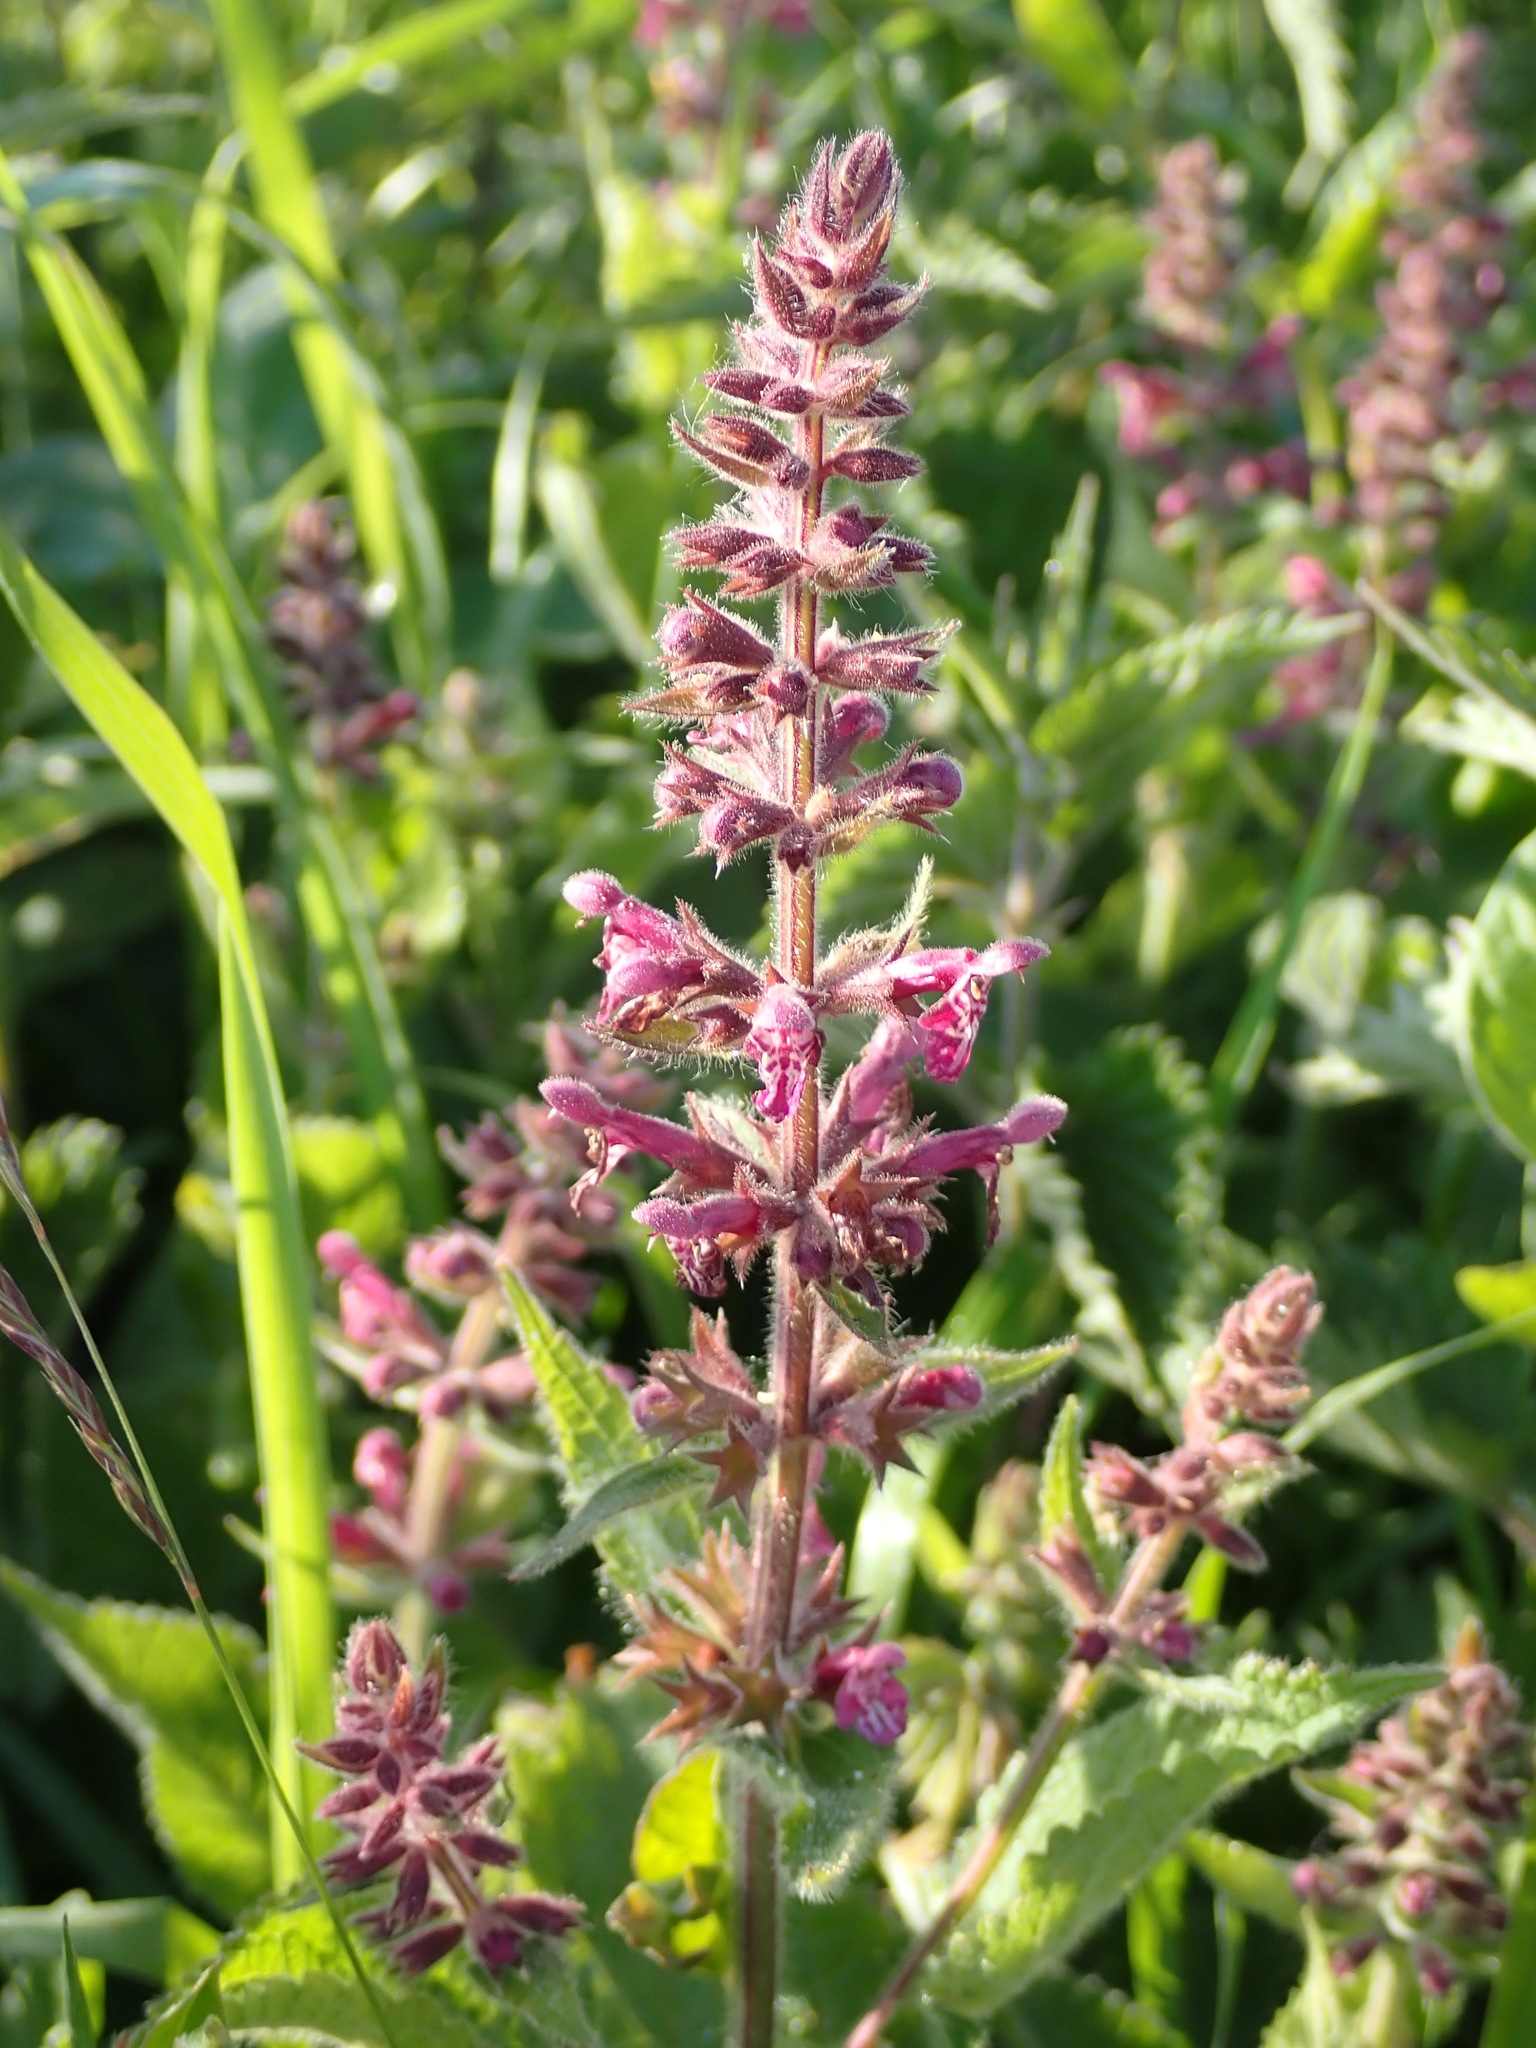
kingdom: Plantae
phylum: Tracheophyta
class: Magnoliopsida
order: Lamiales
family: Lamiaceae
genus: Stachys
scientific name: Stachys sylvatica
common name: Hedge woundwort
